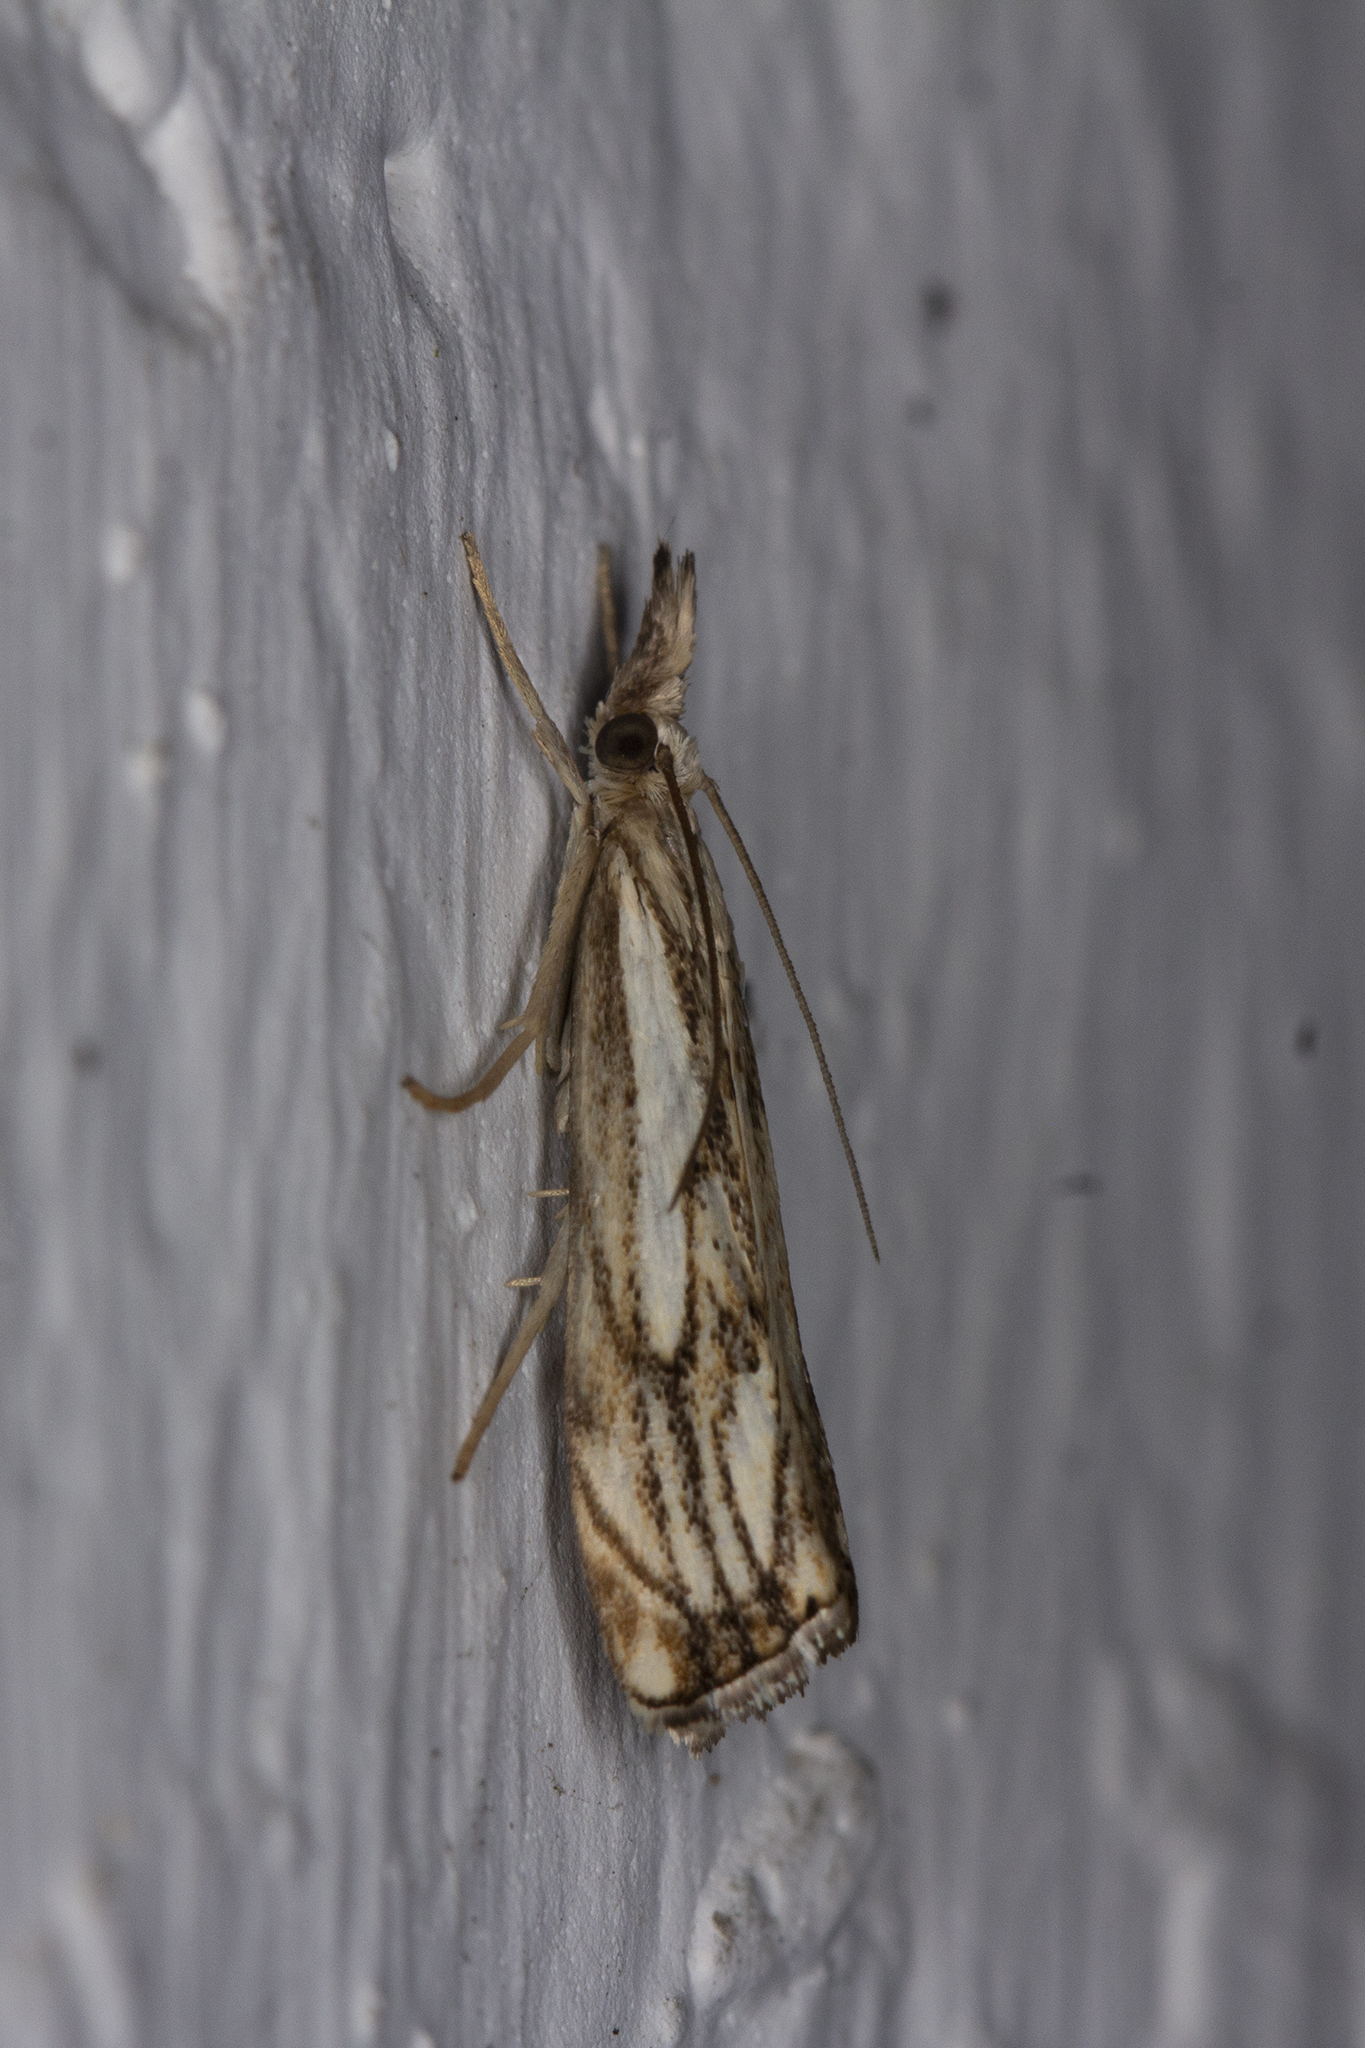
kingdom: Animalia
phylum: Arthropoda
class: Insecta
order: Lepidoptera
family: Crambidae
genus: Catoptria
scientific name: Catoptria falsella
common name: Chequered grass-veneer
